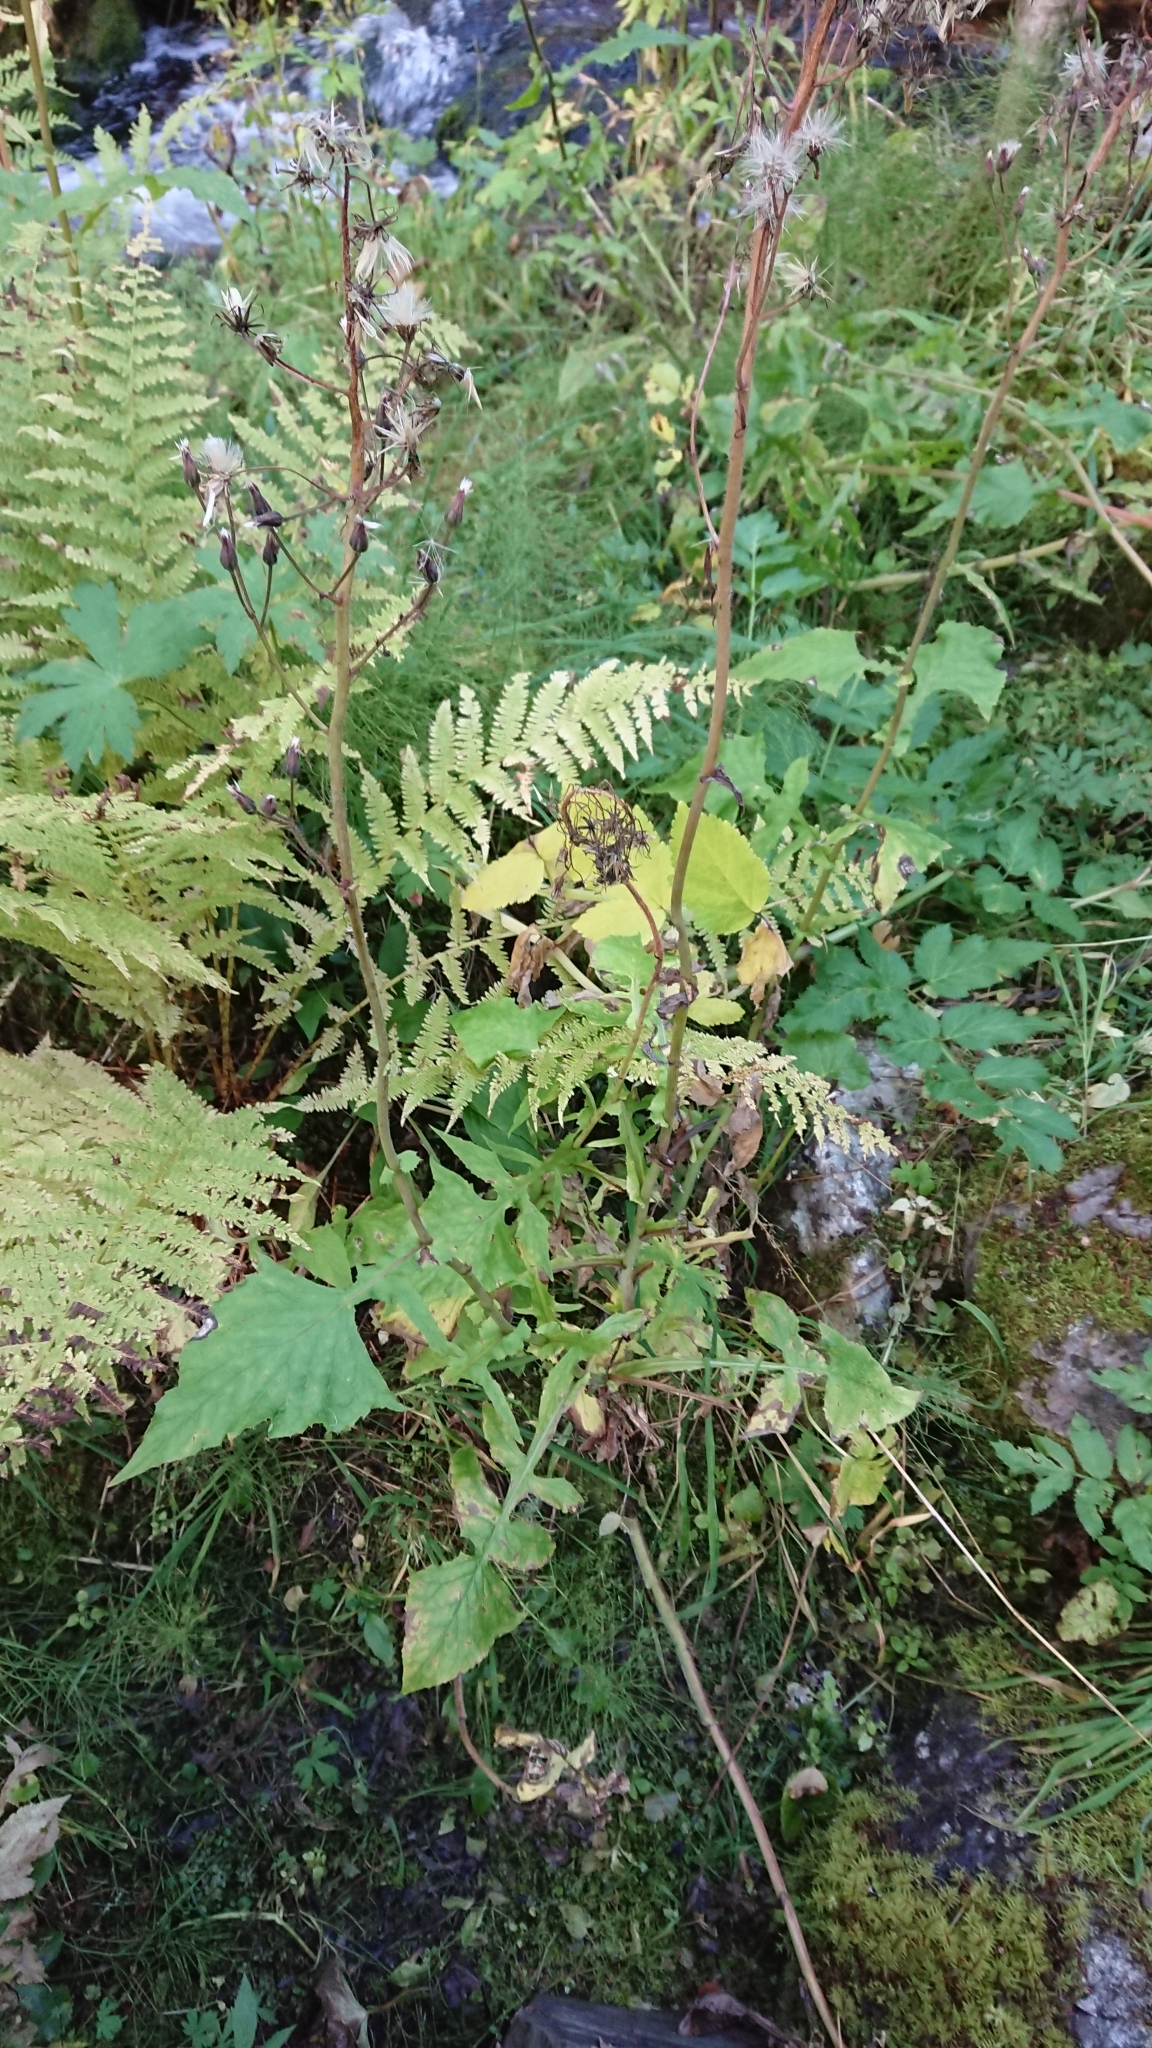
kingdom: Plantae
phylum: Tracheophyta
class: Magnoliopsida
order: Asterales
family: Asteraceae
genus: Cicerbita
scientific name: Cicerbita alpina
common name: Alpine blue-sow-thistle
